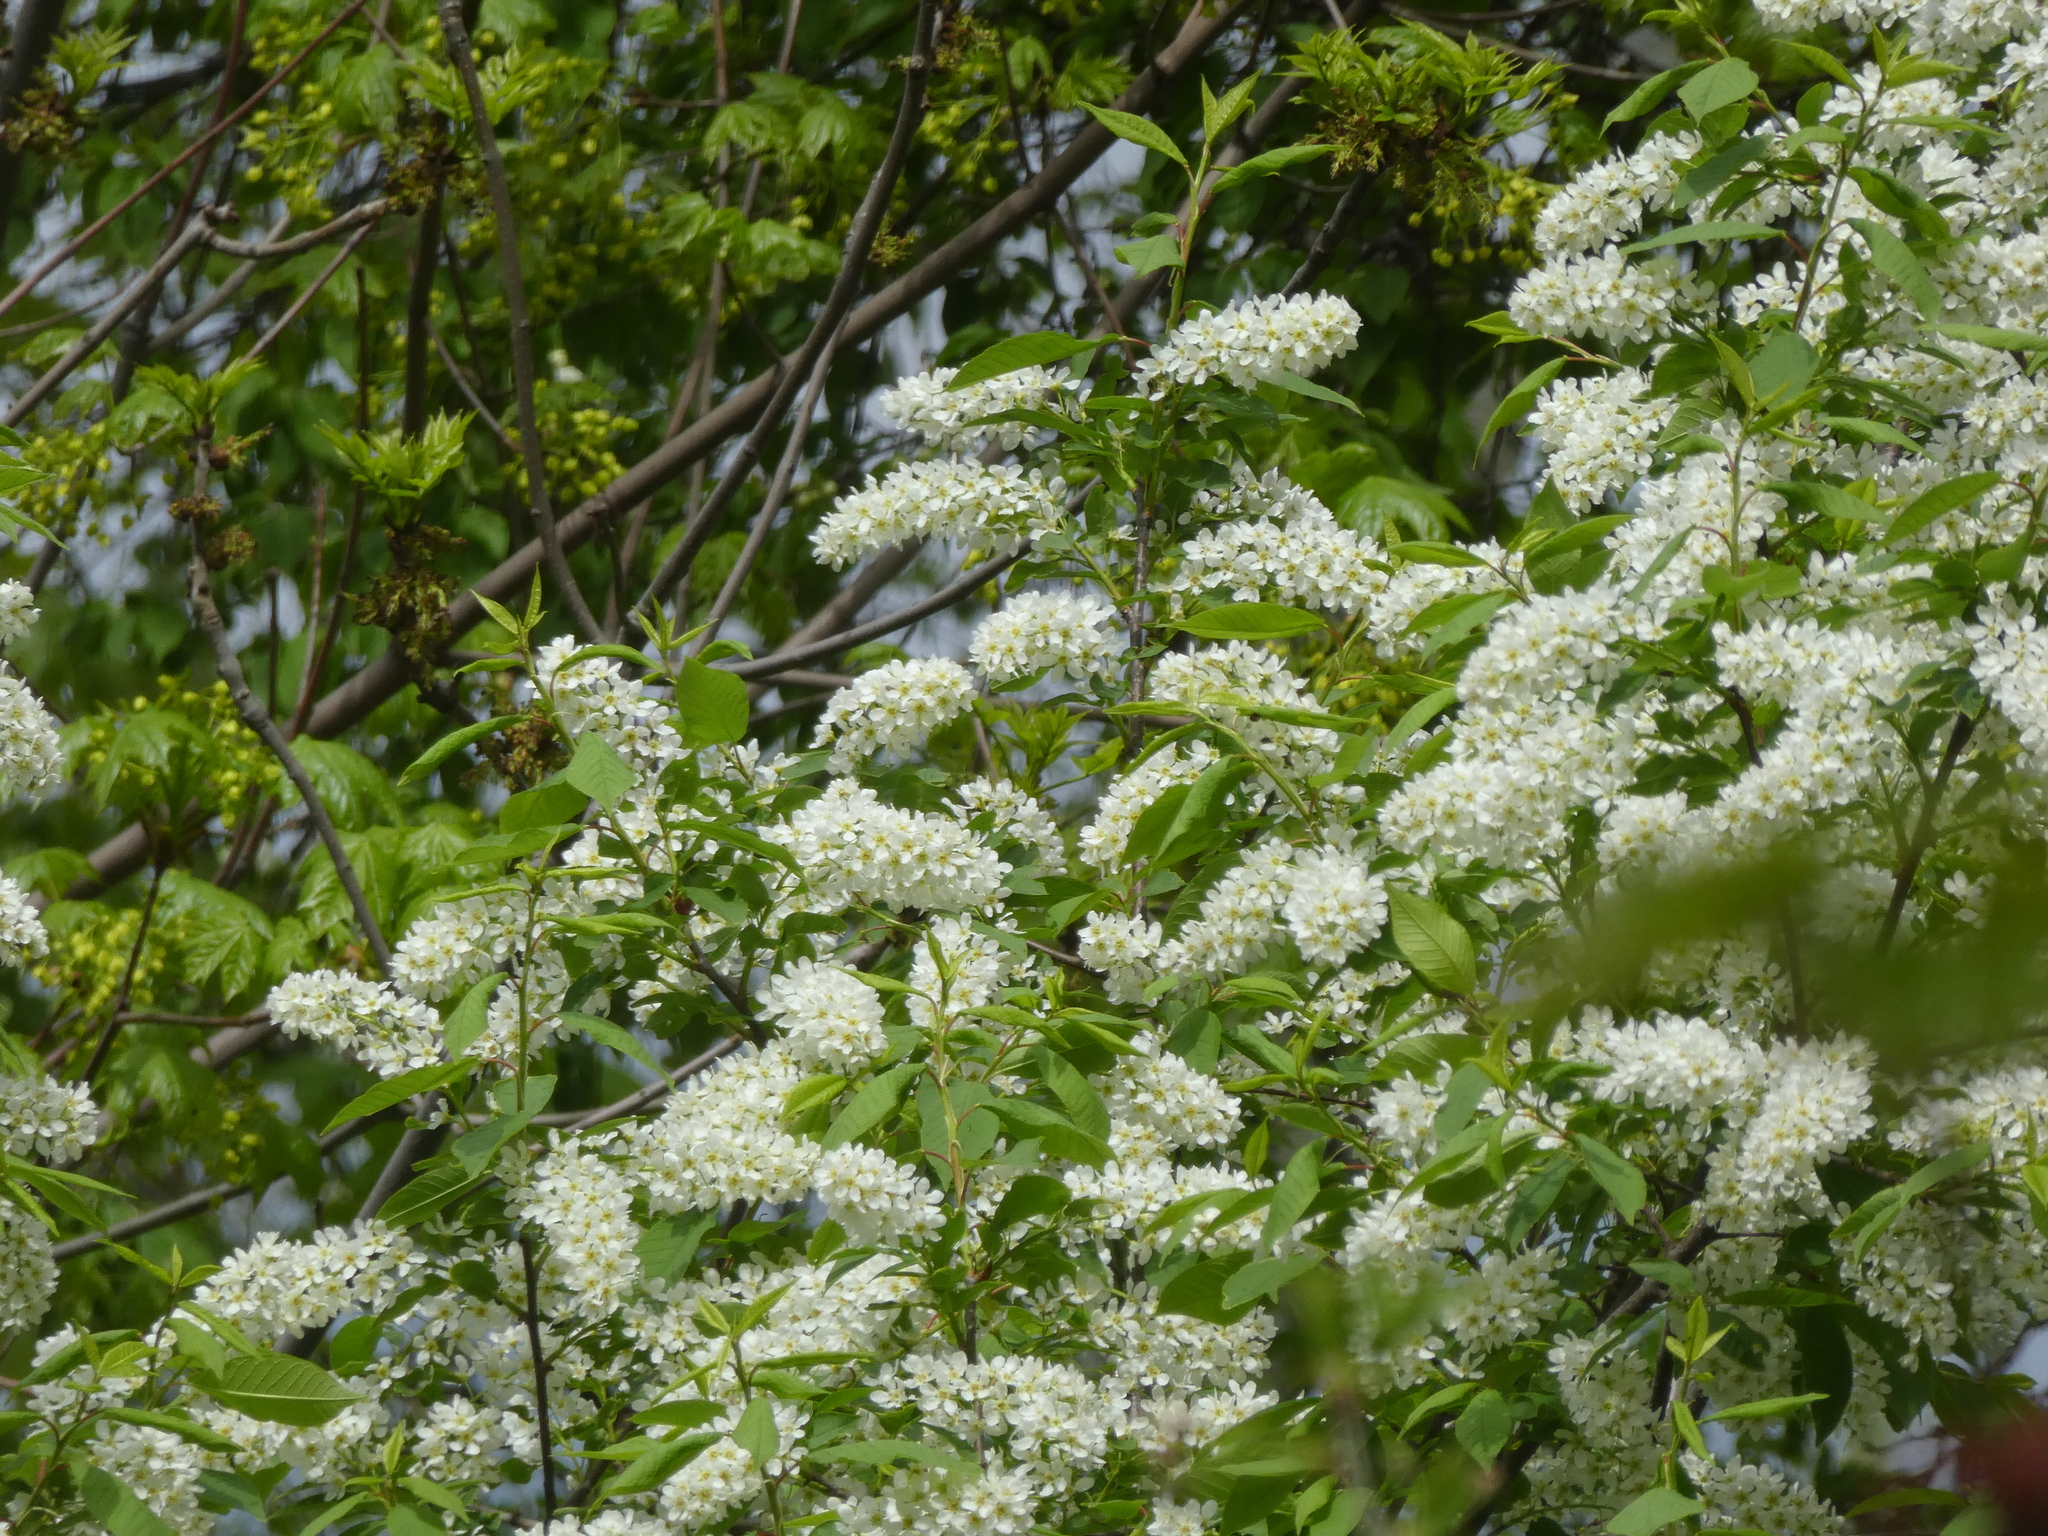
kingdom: Plantae
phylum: Tracheophyta
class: Magnoliopsida
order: Rosales
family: Rosaceae
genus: Prunus
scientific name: Prunus padus
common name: Bird cherry
